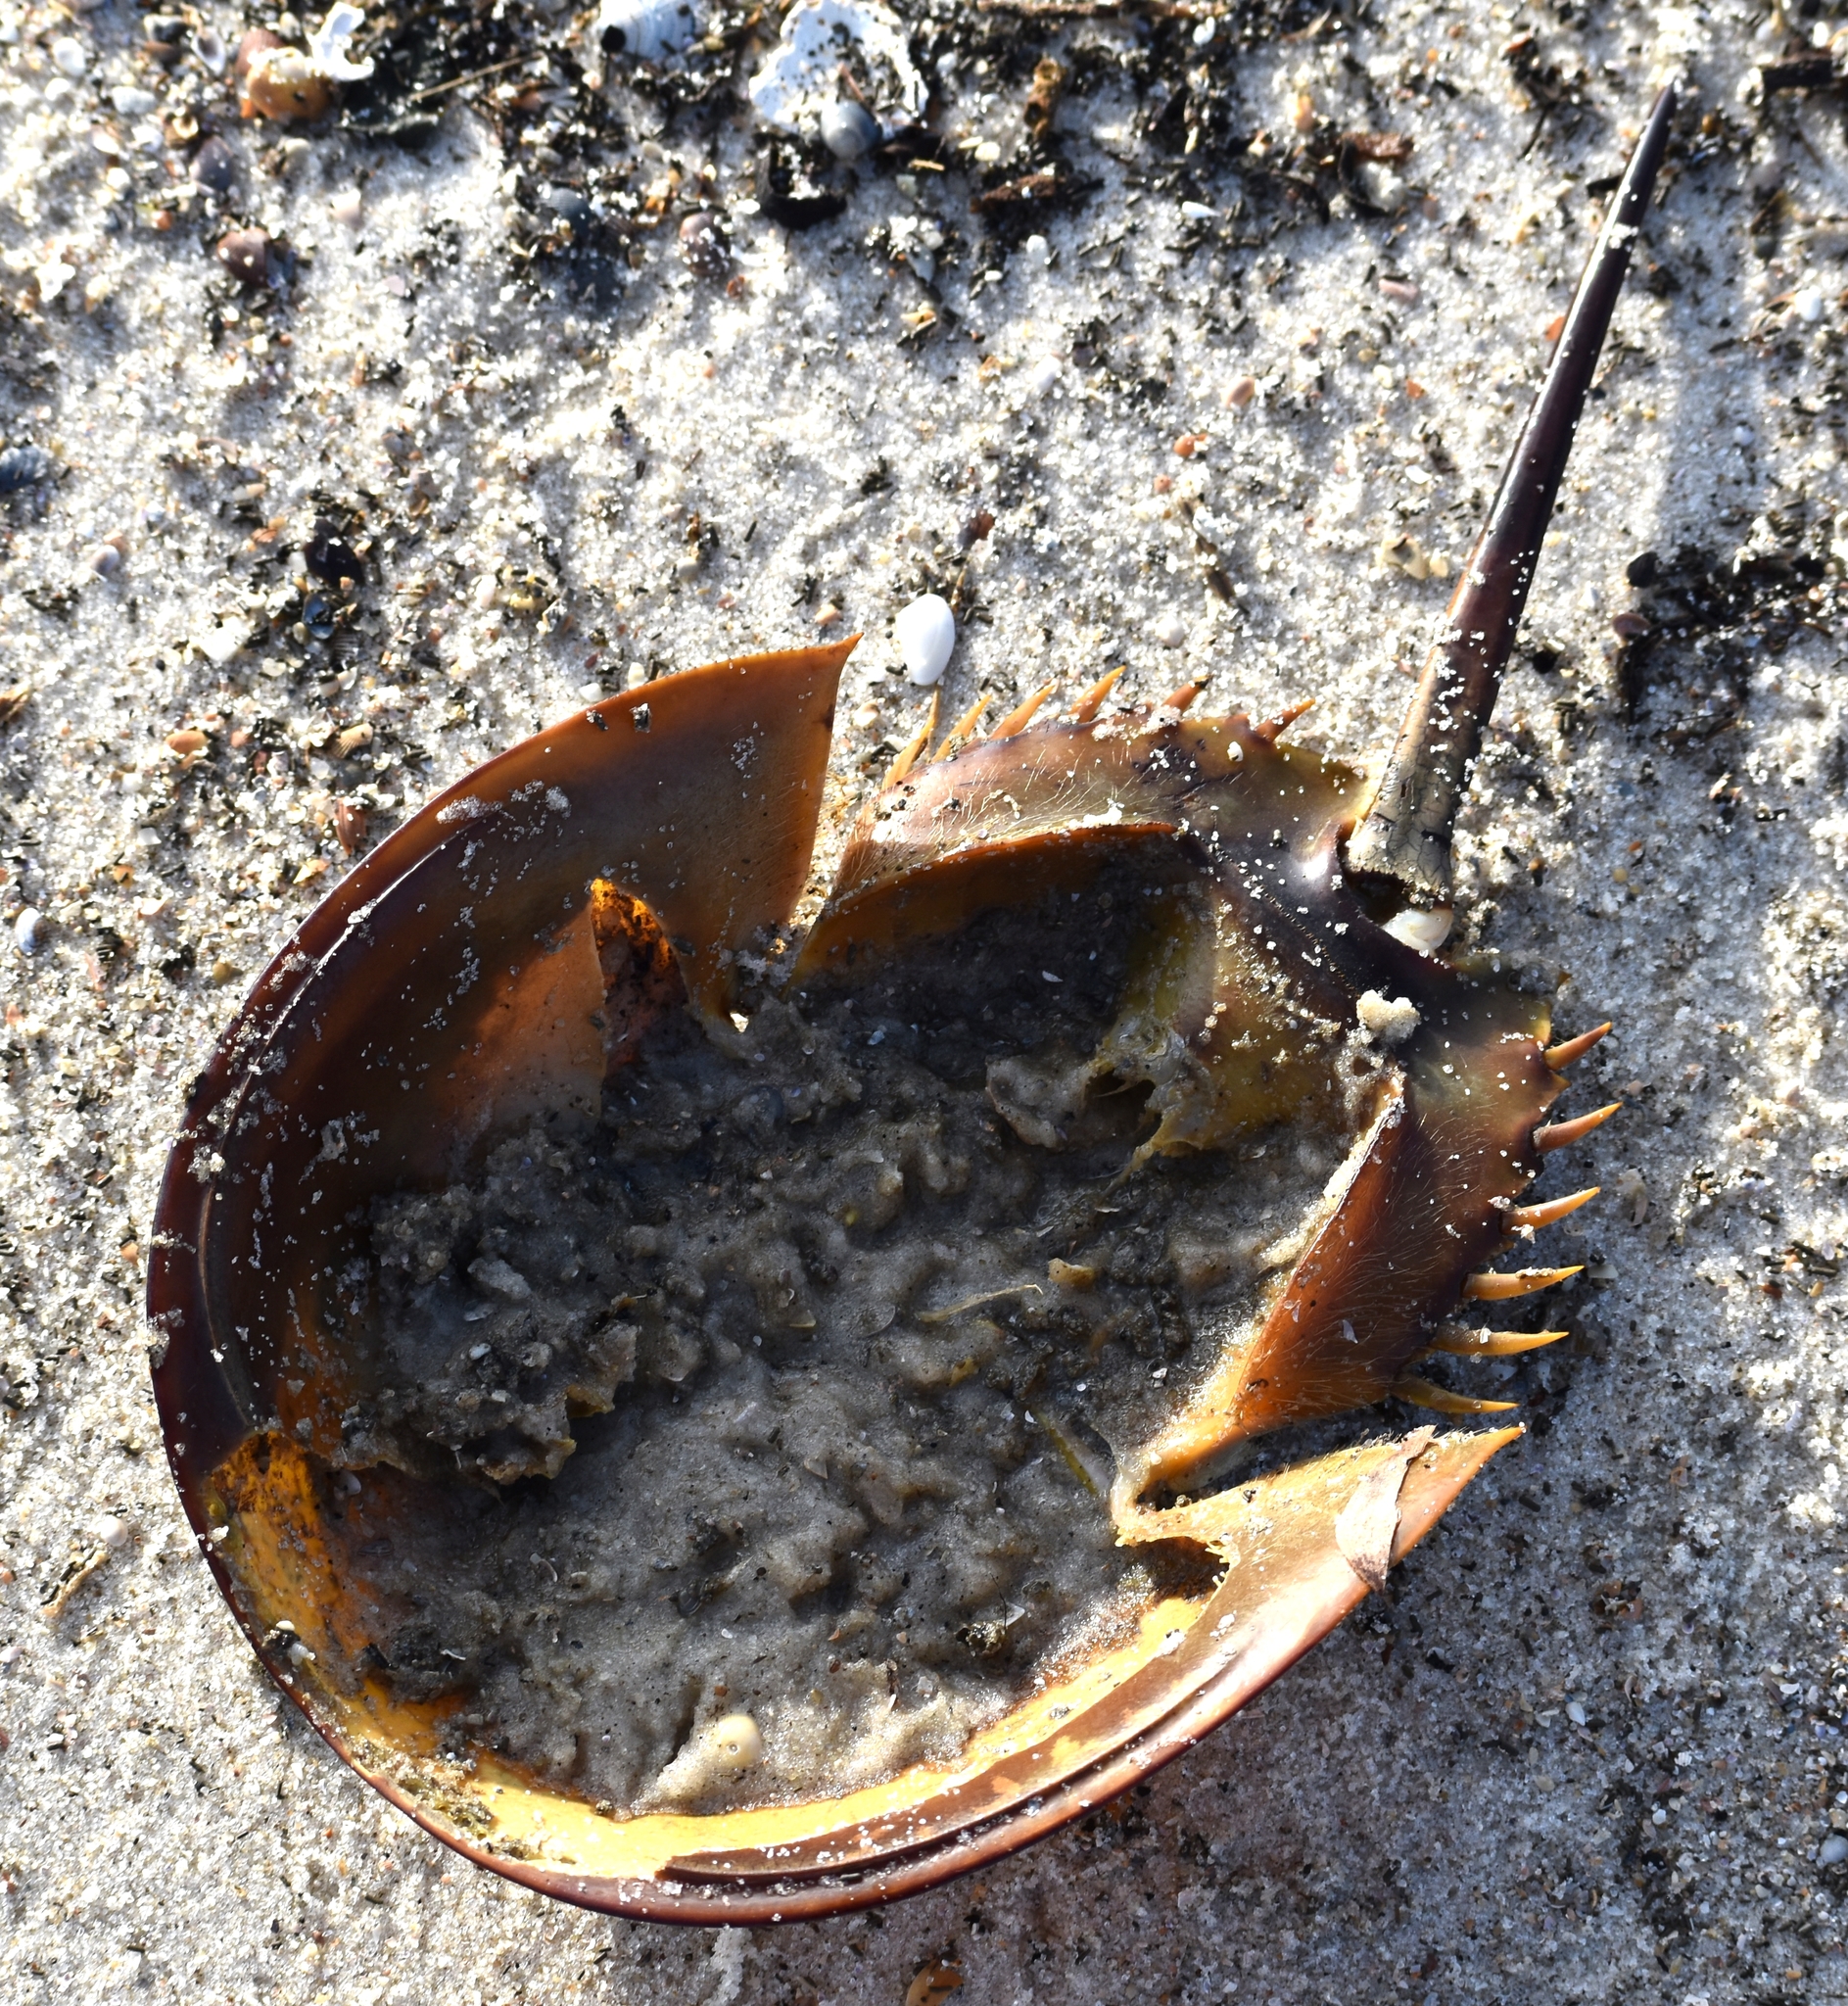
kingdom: Animalia
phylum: Arthropoda
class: Merostomata
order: Xiphosurida
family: Limulidae
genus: Limulus
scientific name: Limulus polyphemus
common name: Horseshoe crab
